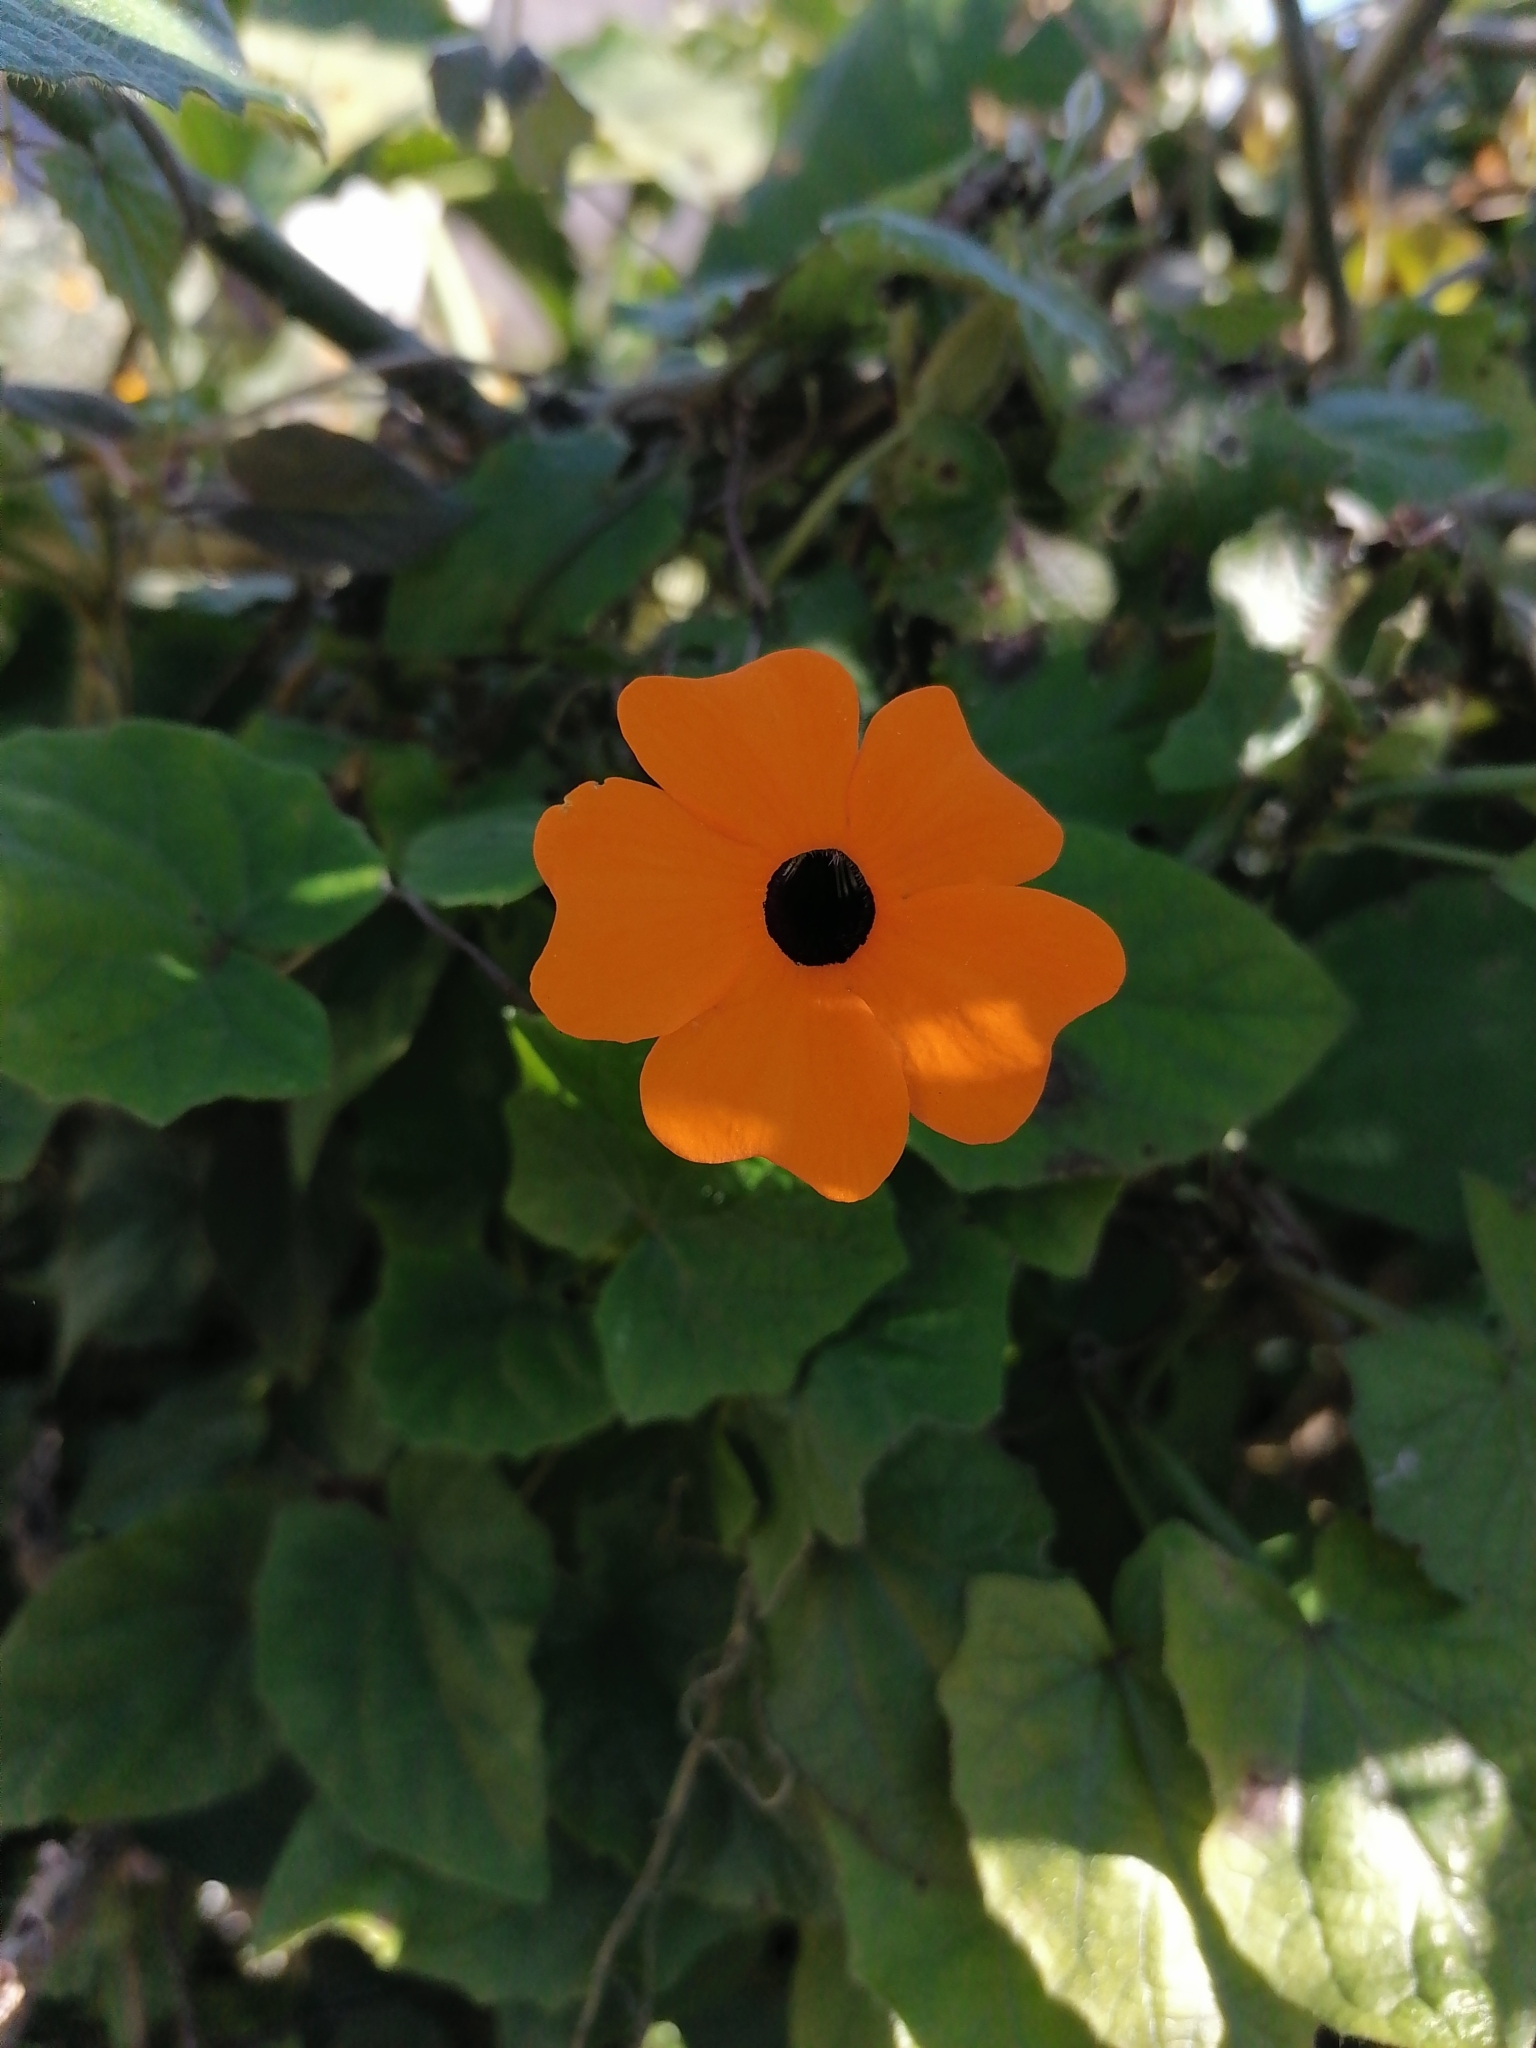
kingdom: Plantae
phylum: Tracheophyta
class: Magnoliopsida
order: Lamiales
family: Acanthaceae
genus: Thunbergia
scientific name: Thunbergia alata
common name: Blackeyed susan vine
